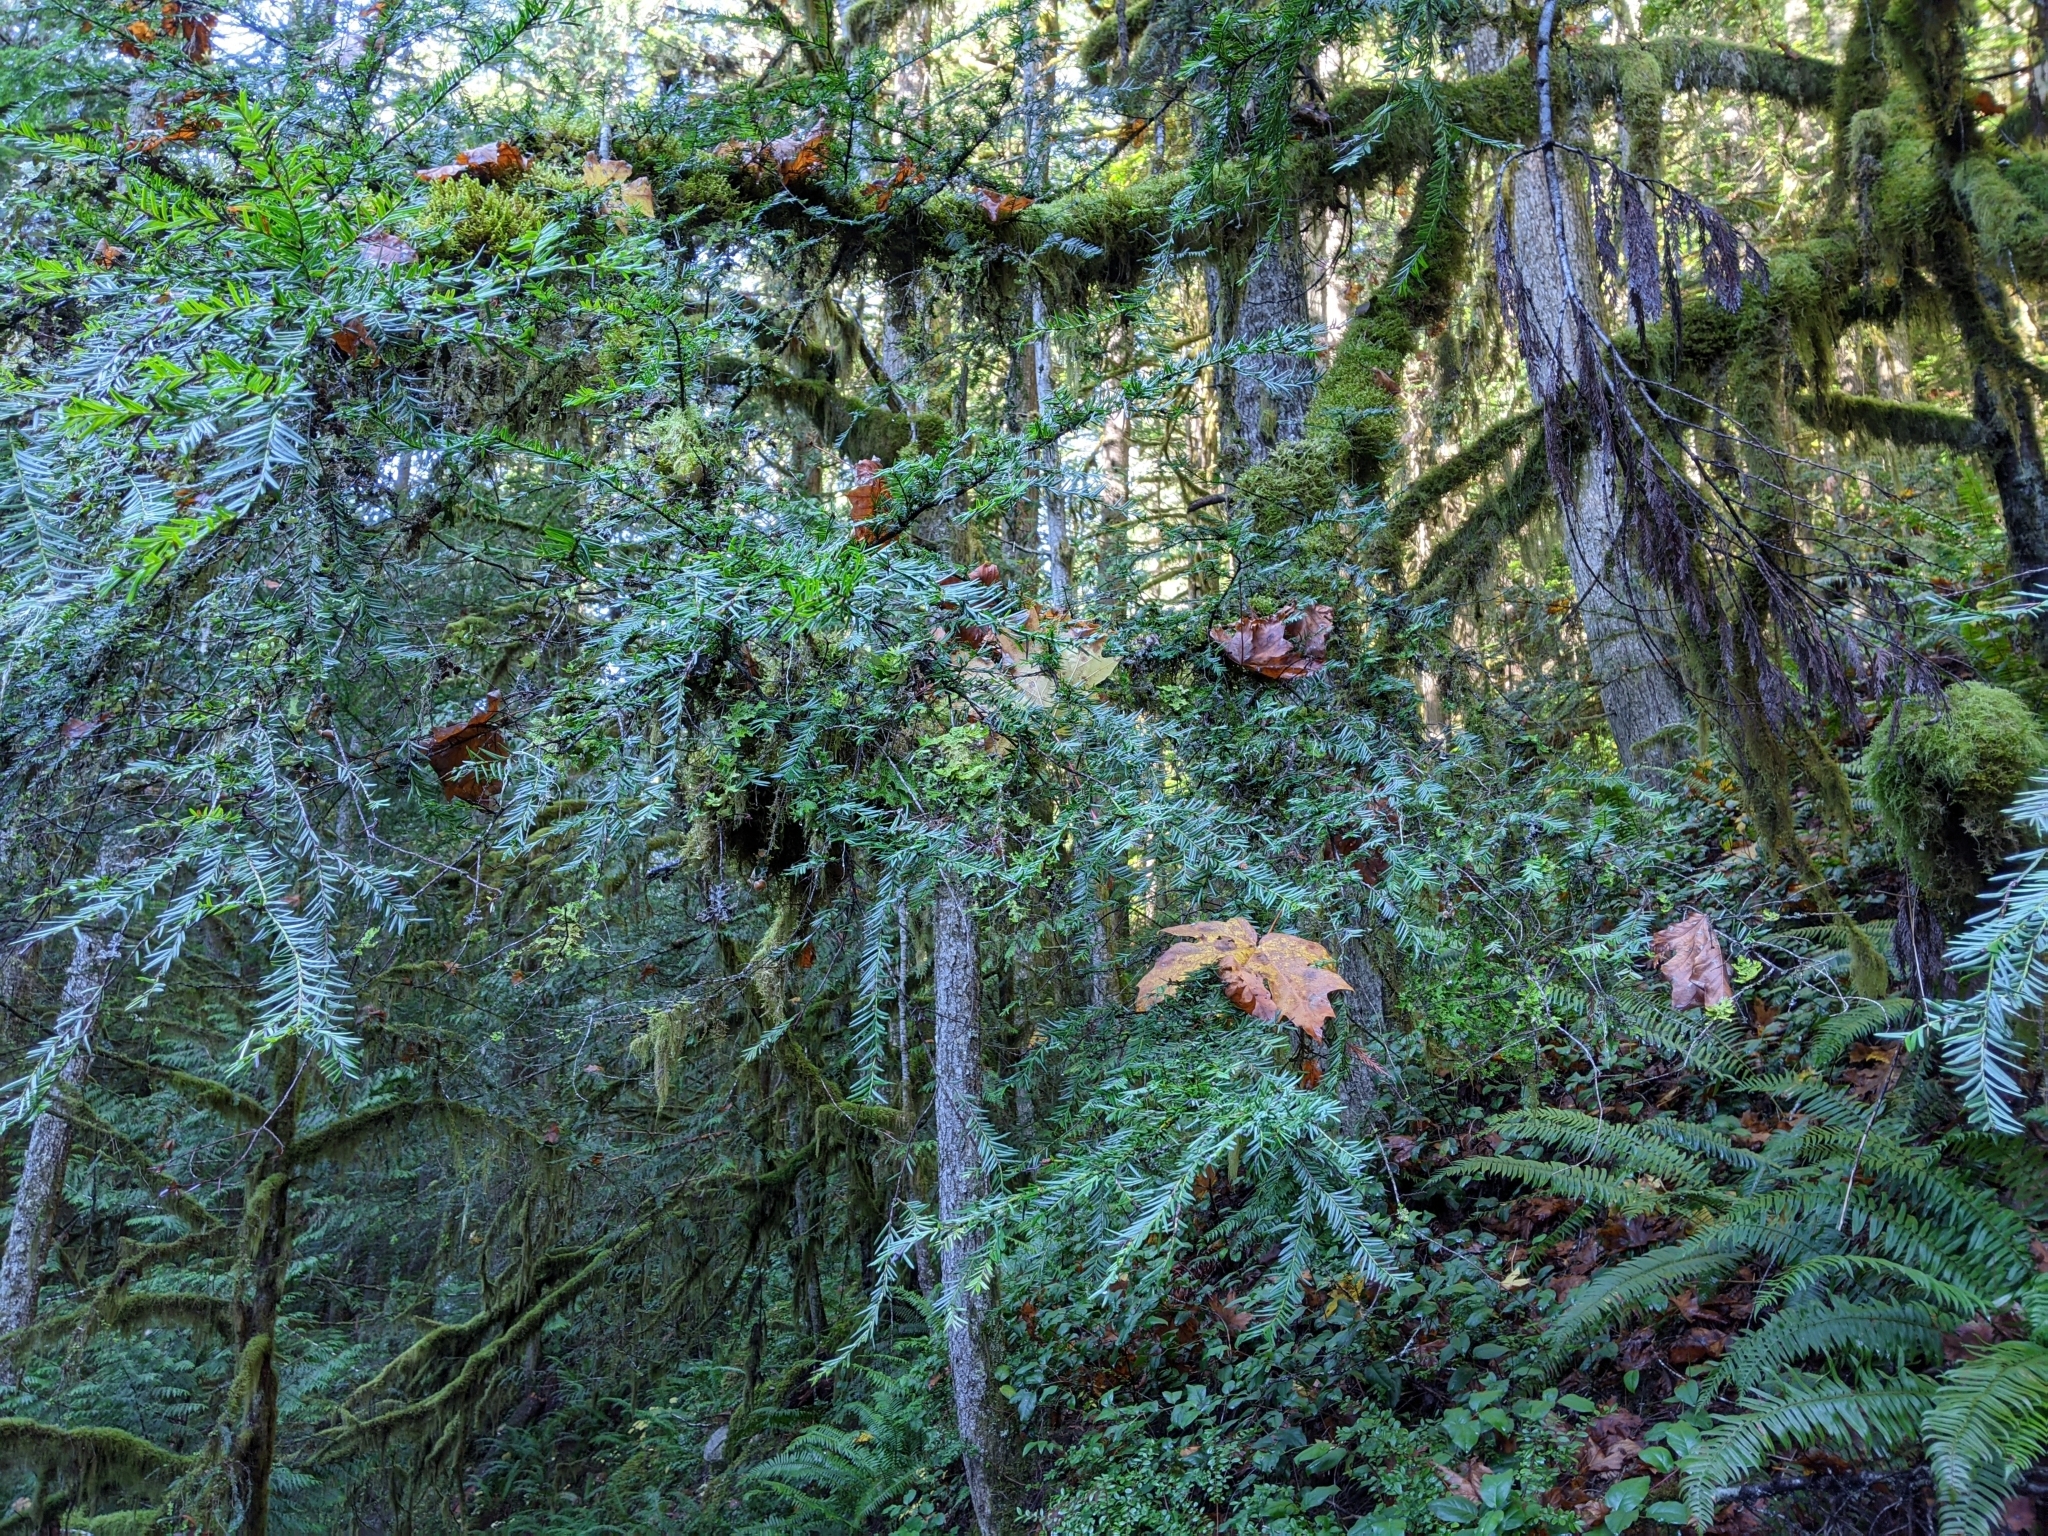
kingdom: Plantae
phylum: Tracheophyta
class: Pinopsida
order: Pinales
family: Taxaceae
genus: Taxus
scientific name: Taxus brevifolia
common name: Pacific yew
